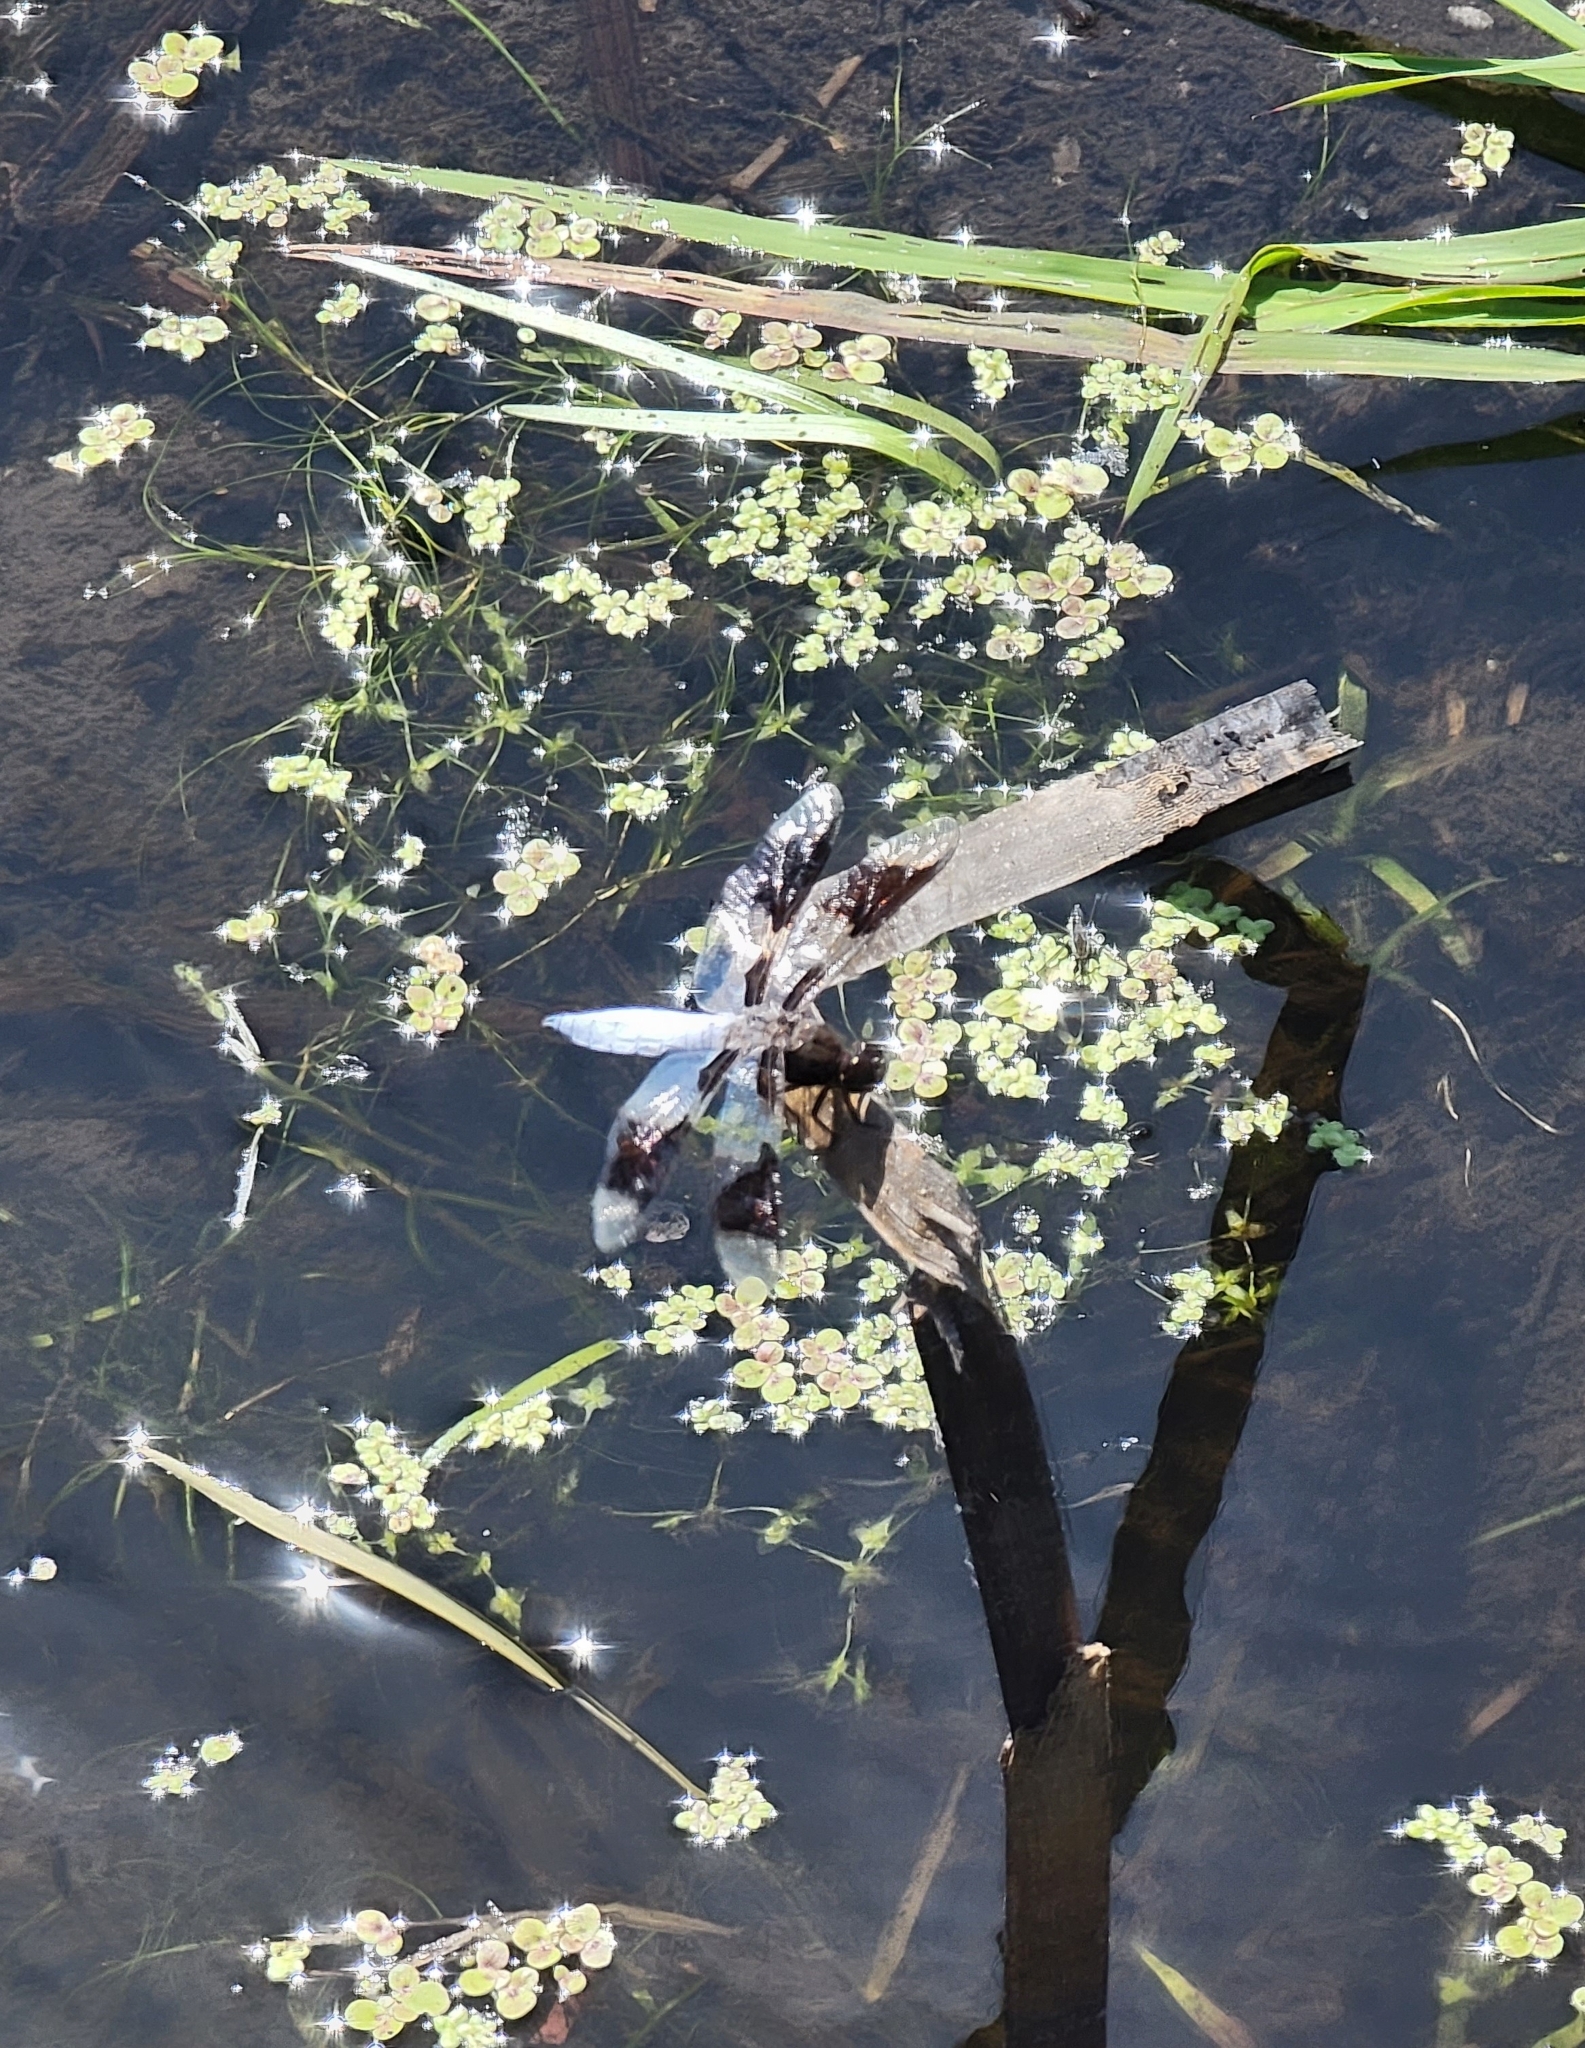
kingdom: Animalia
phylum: Arthropoda
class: Insecta
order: Odonata
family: Libellulidae
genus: Plathemis
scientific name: Plathemis lydia
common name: Common whitetail
